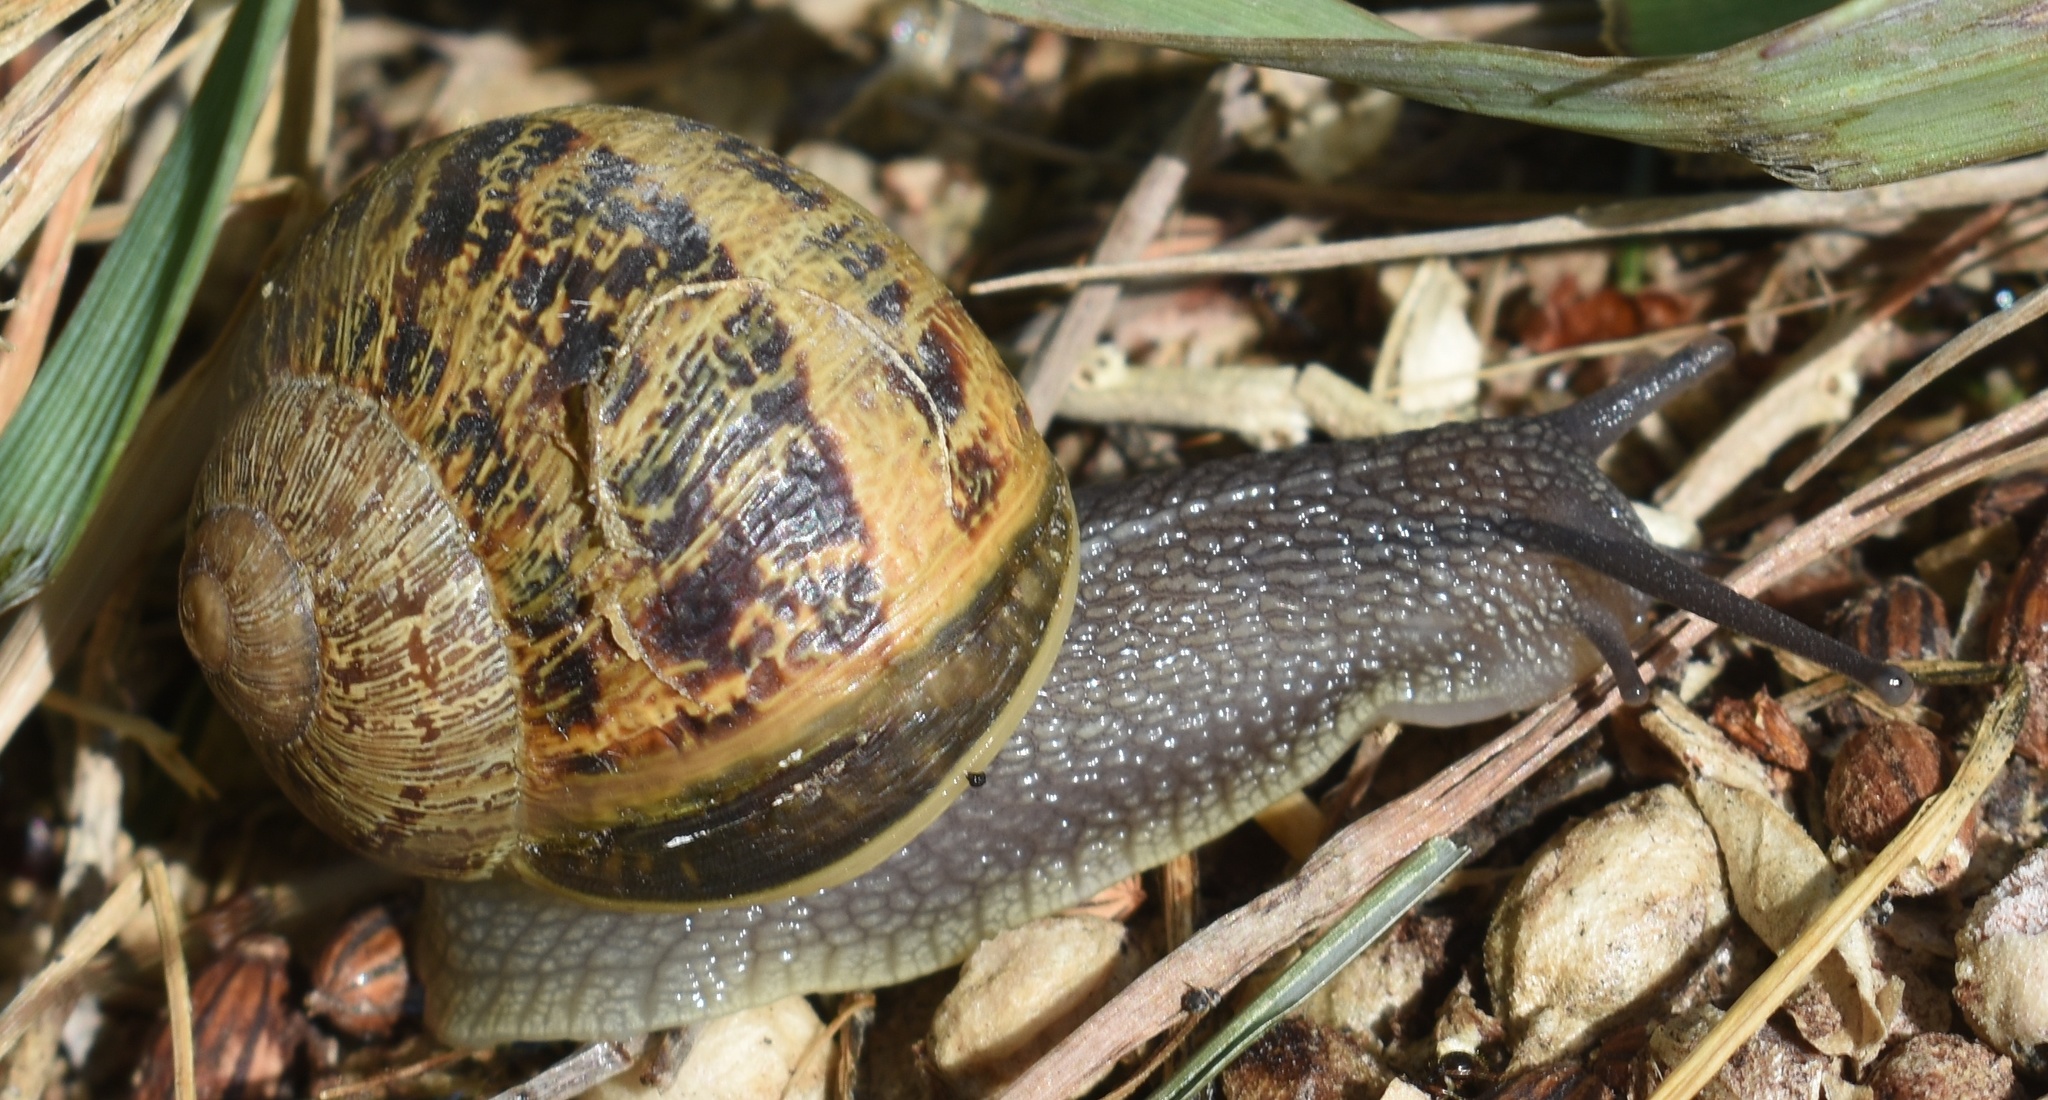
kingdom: Animalia
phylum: Mollusca
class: Gastropoda
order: Stylommatophora
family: Helicidae
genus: Cornu
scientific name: Cornu aspersum
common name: Brown garden snail
